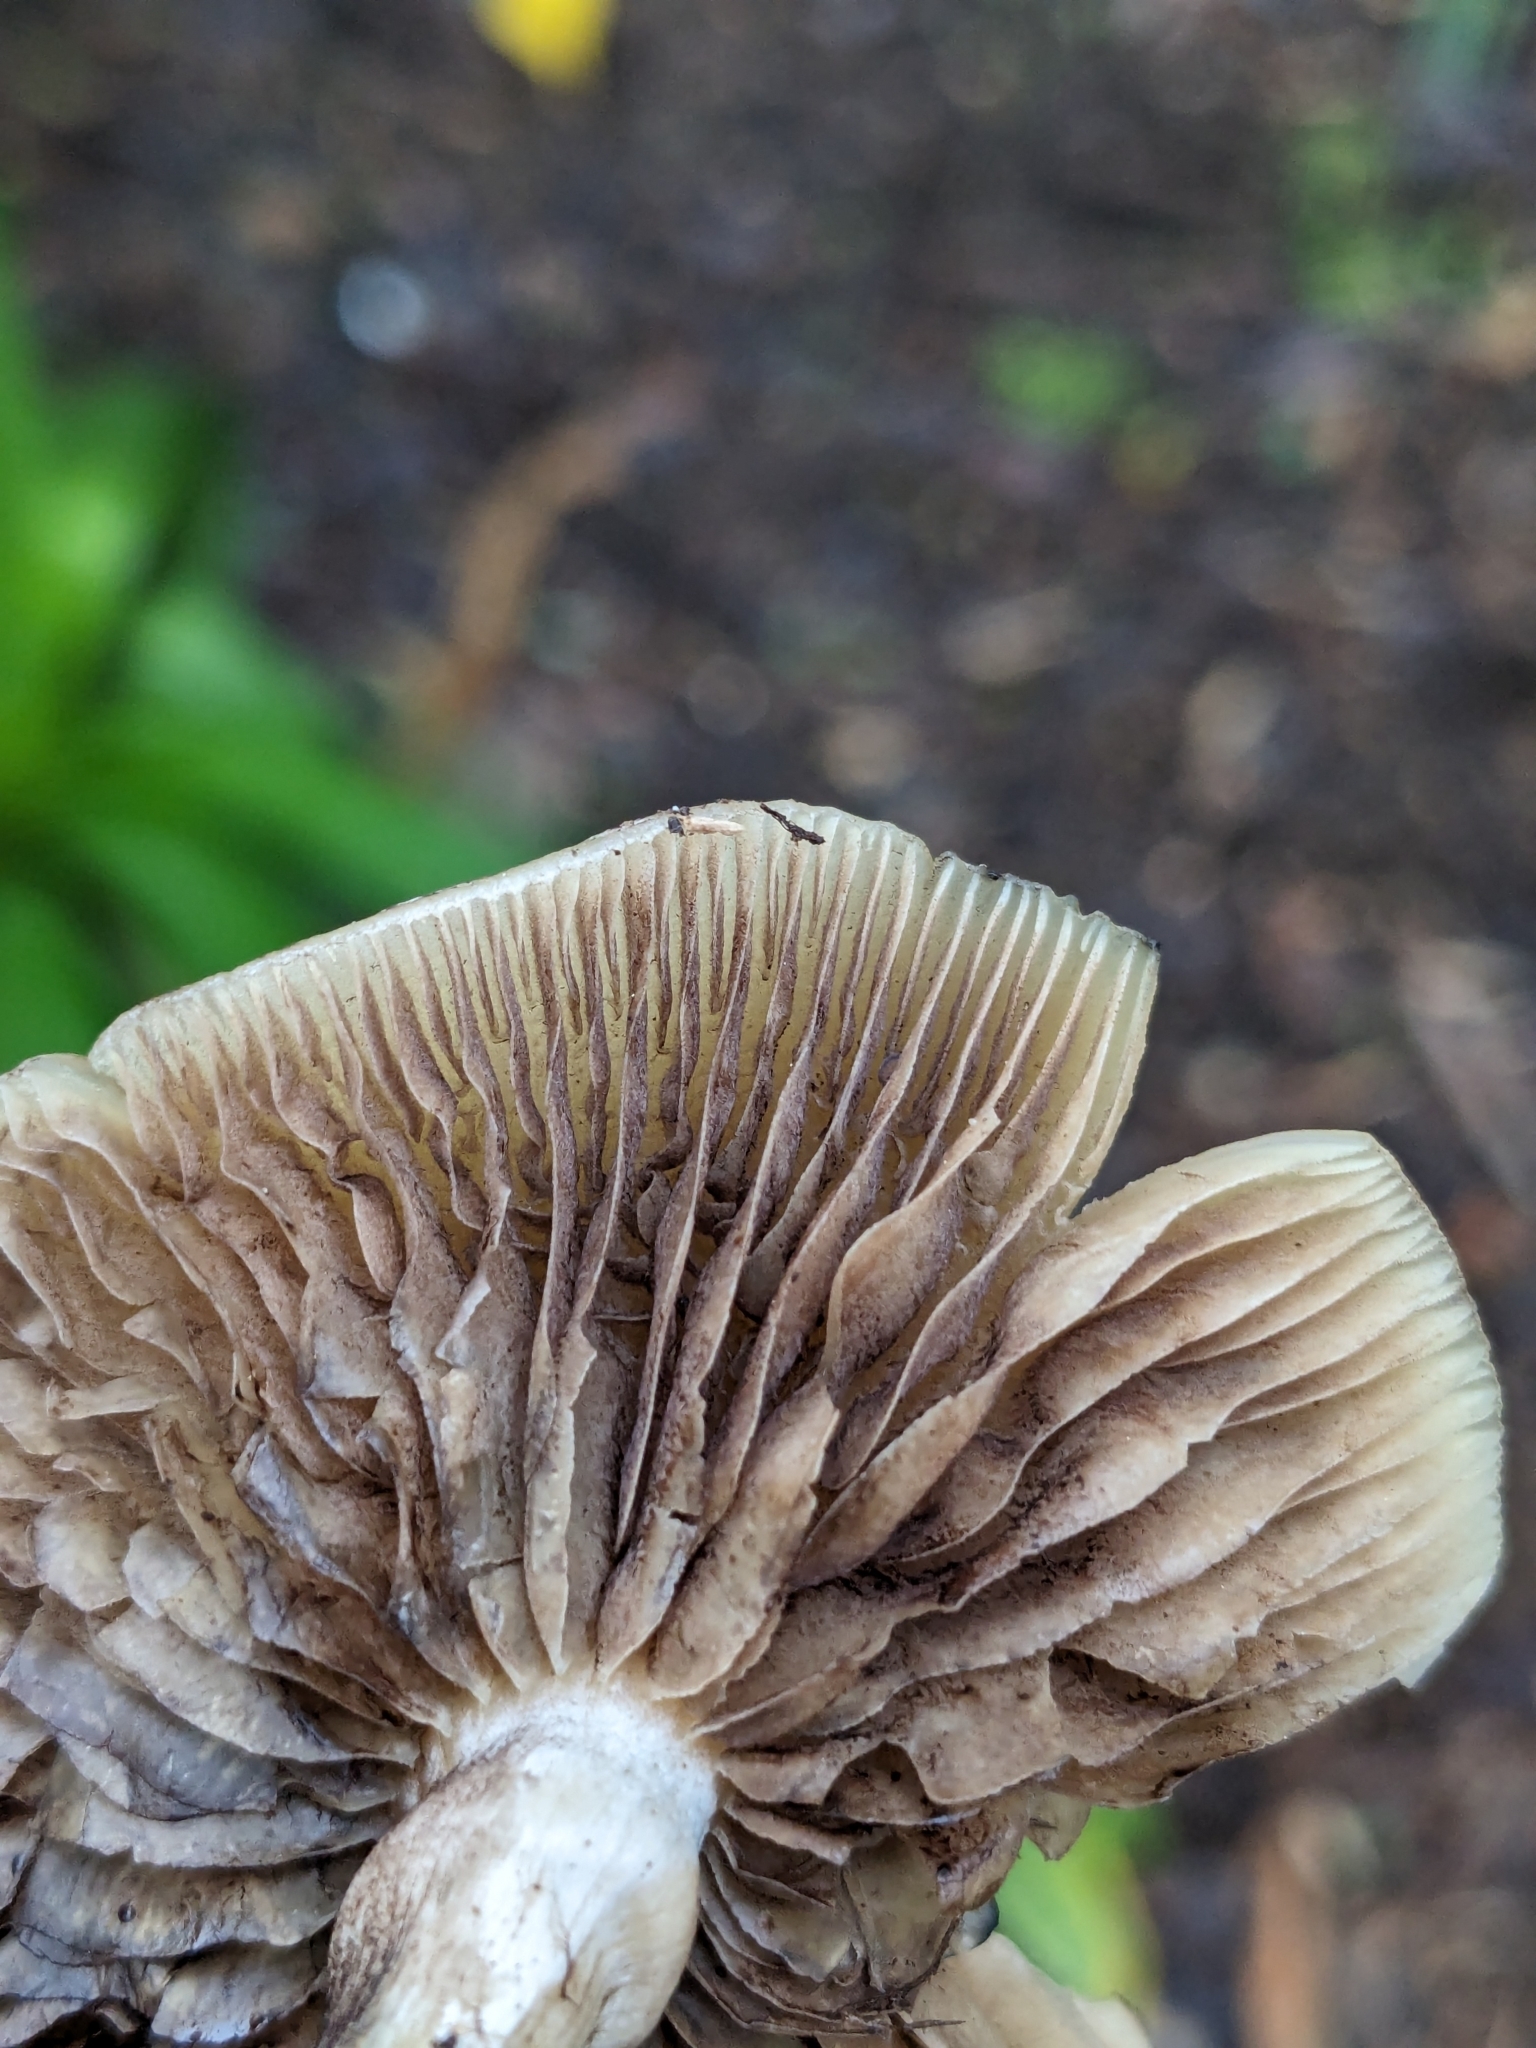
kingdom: Fungi
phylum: Basidiomycota
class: Agaricomycetes
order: Agaricales
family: Hymenogastraceae
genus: Psilocybe
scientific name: Psilocybe cyanescens
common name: Blueleg brownie
